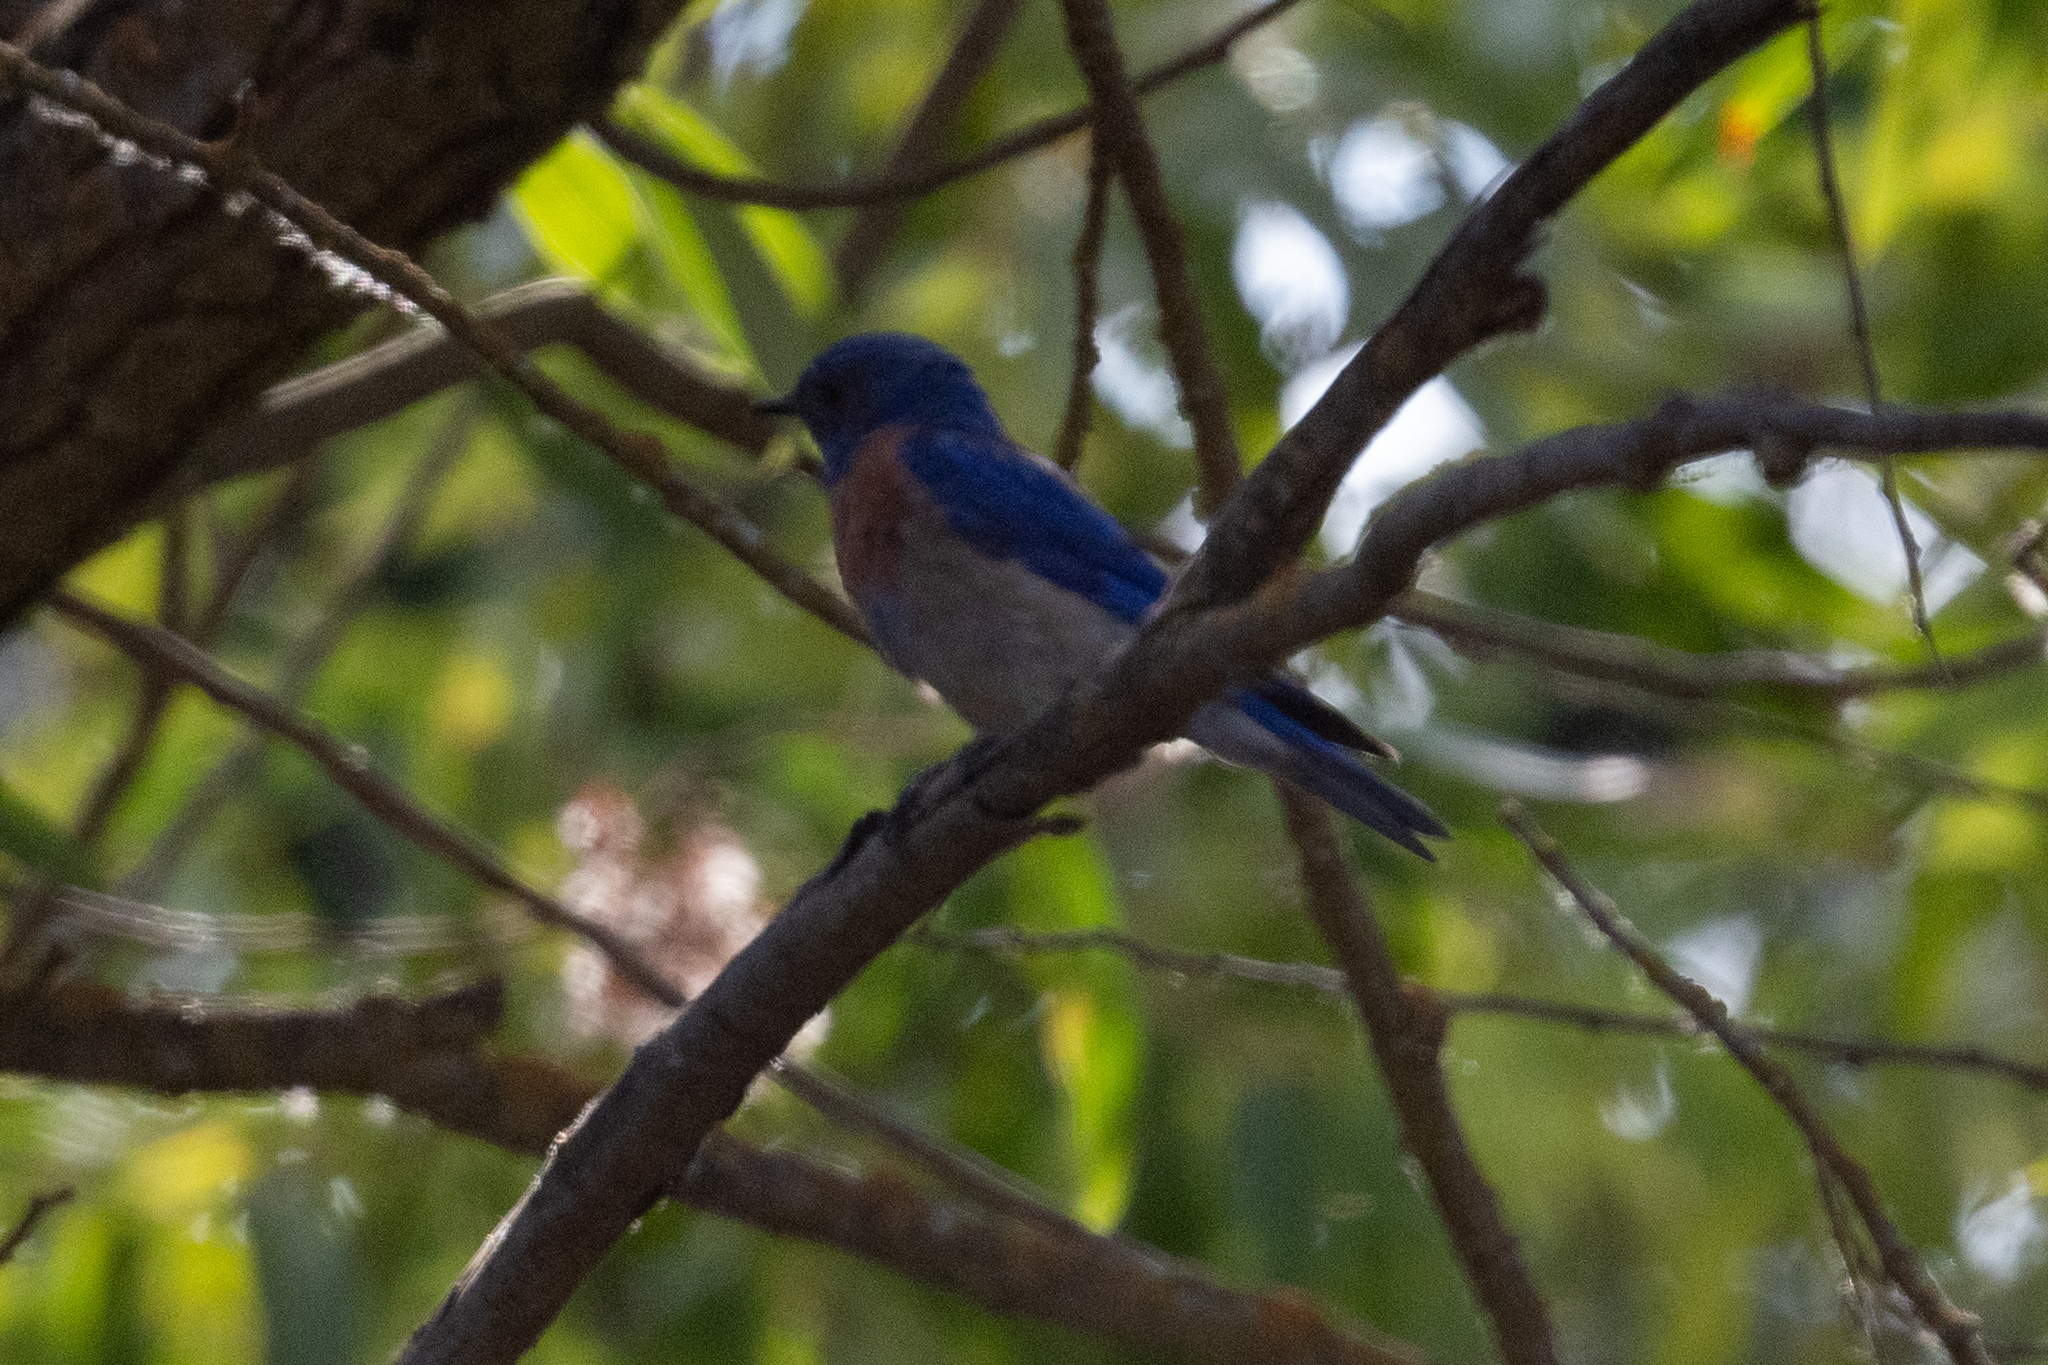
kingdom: Animalia
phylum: Chordata
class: Aves
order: Passeriformes
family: Turdidae
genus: Sialia
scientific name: Sialia mexicana
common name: Western bluebird
